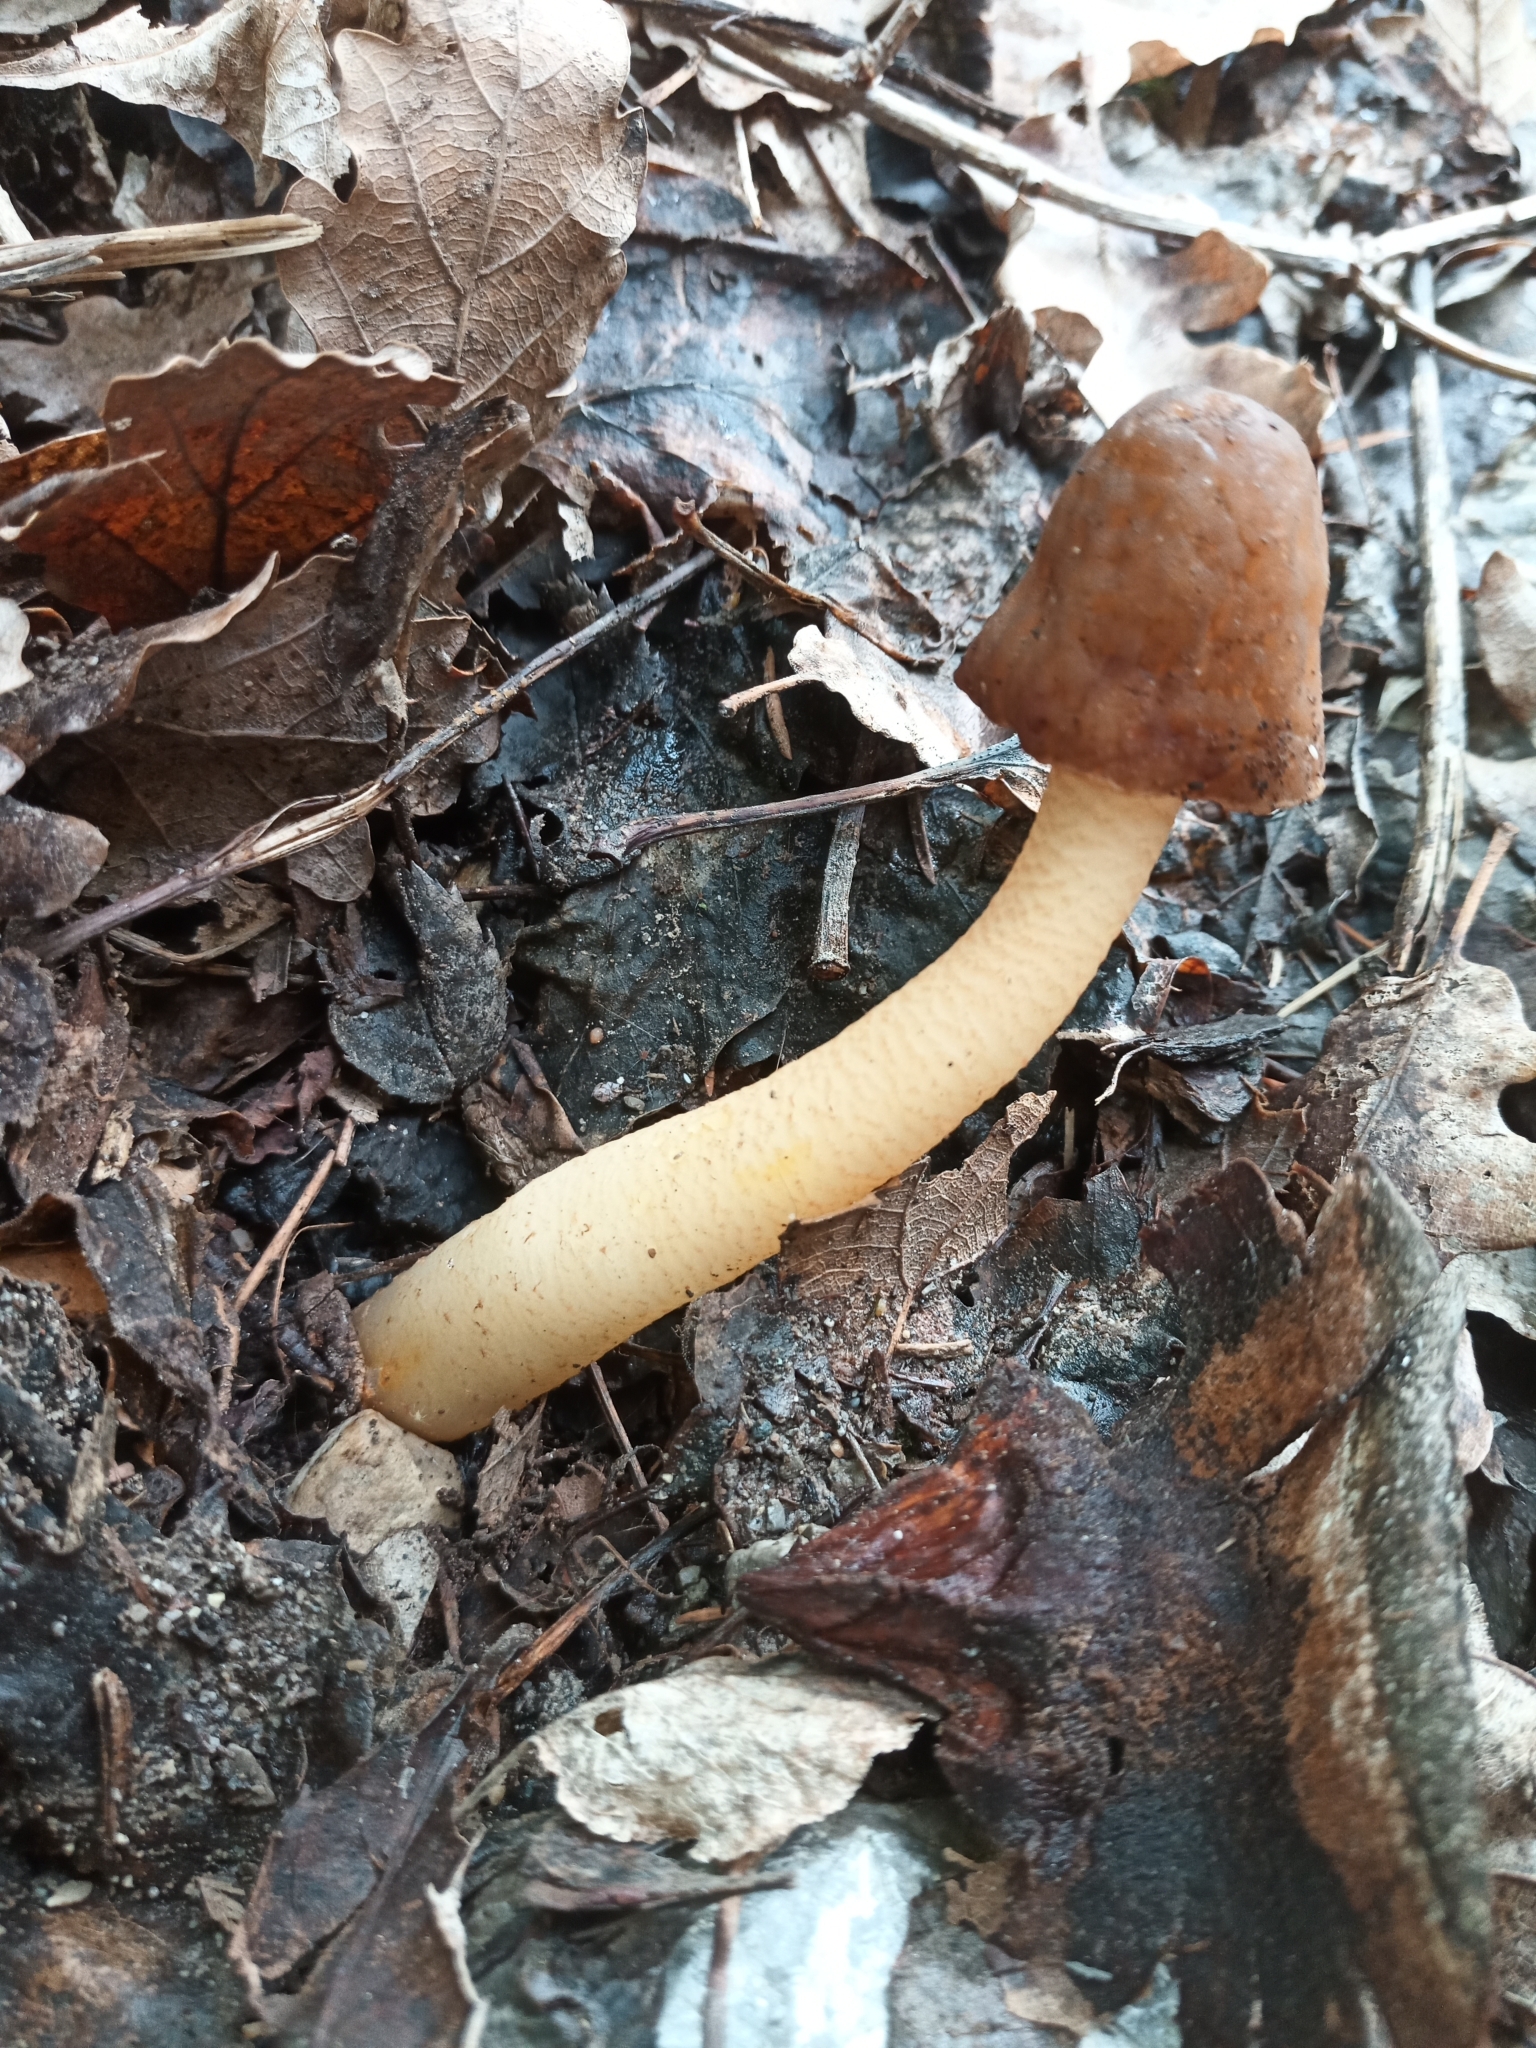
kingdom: Fungi
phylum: Ascomycota
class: Pezizomycetes
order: Pezizales
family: Morchellaceae
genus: Verpa
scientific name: Verpa conica
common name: Thimble morel
